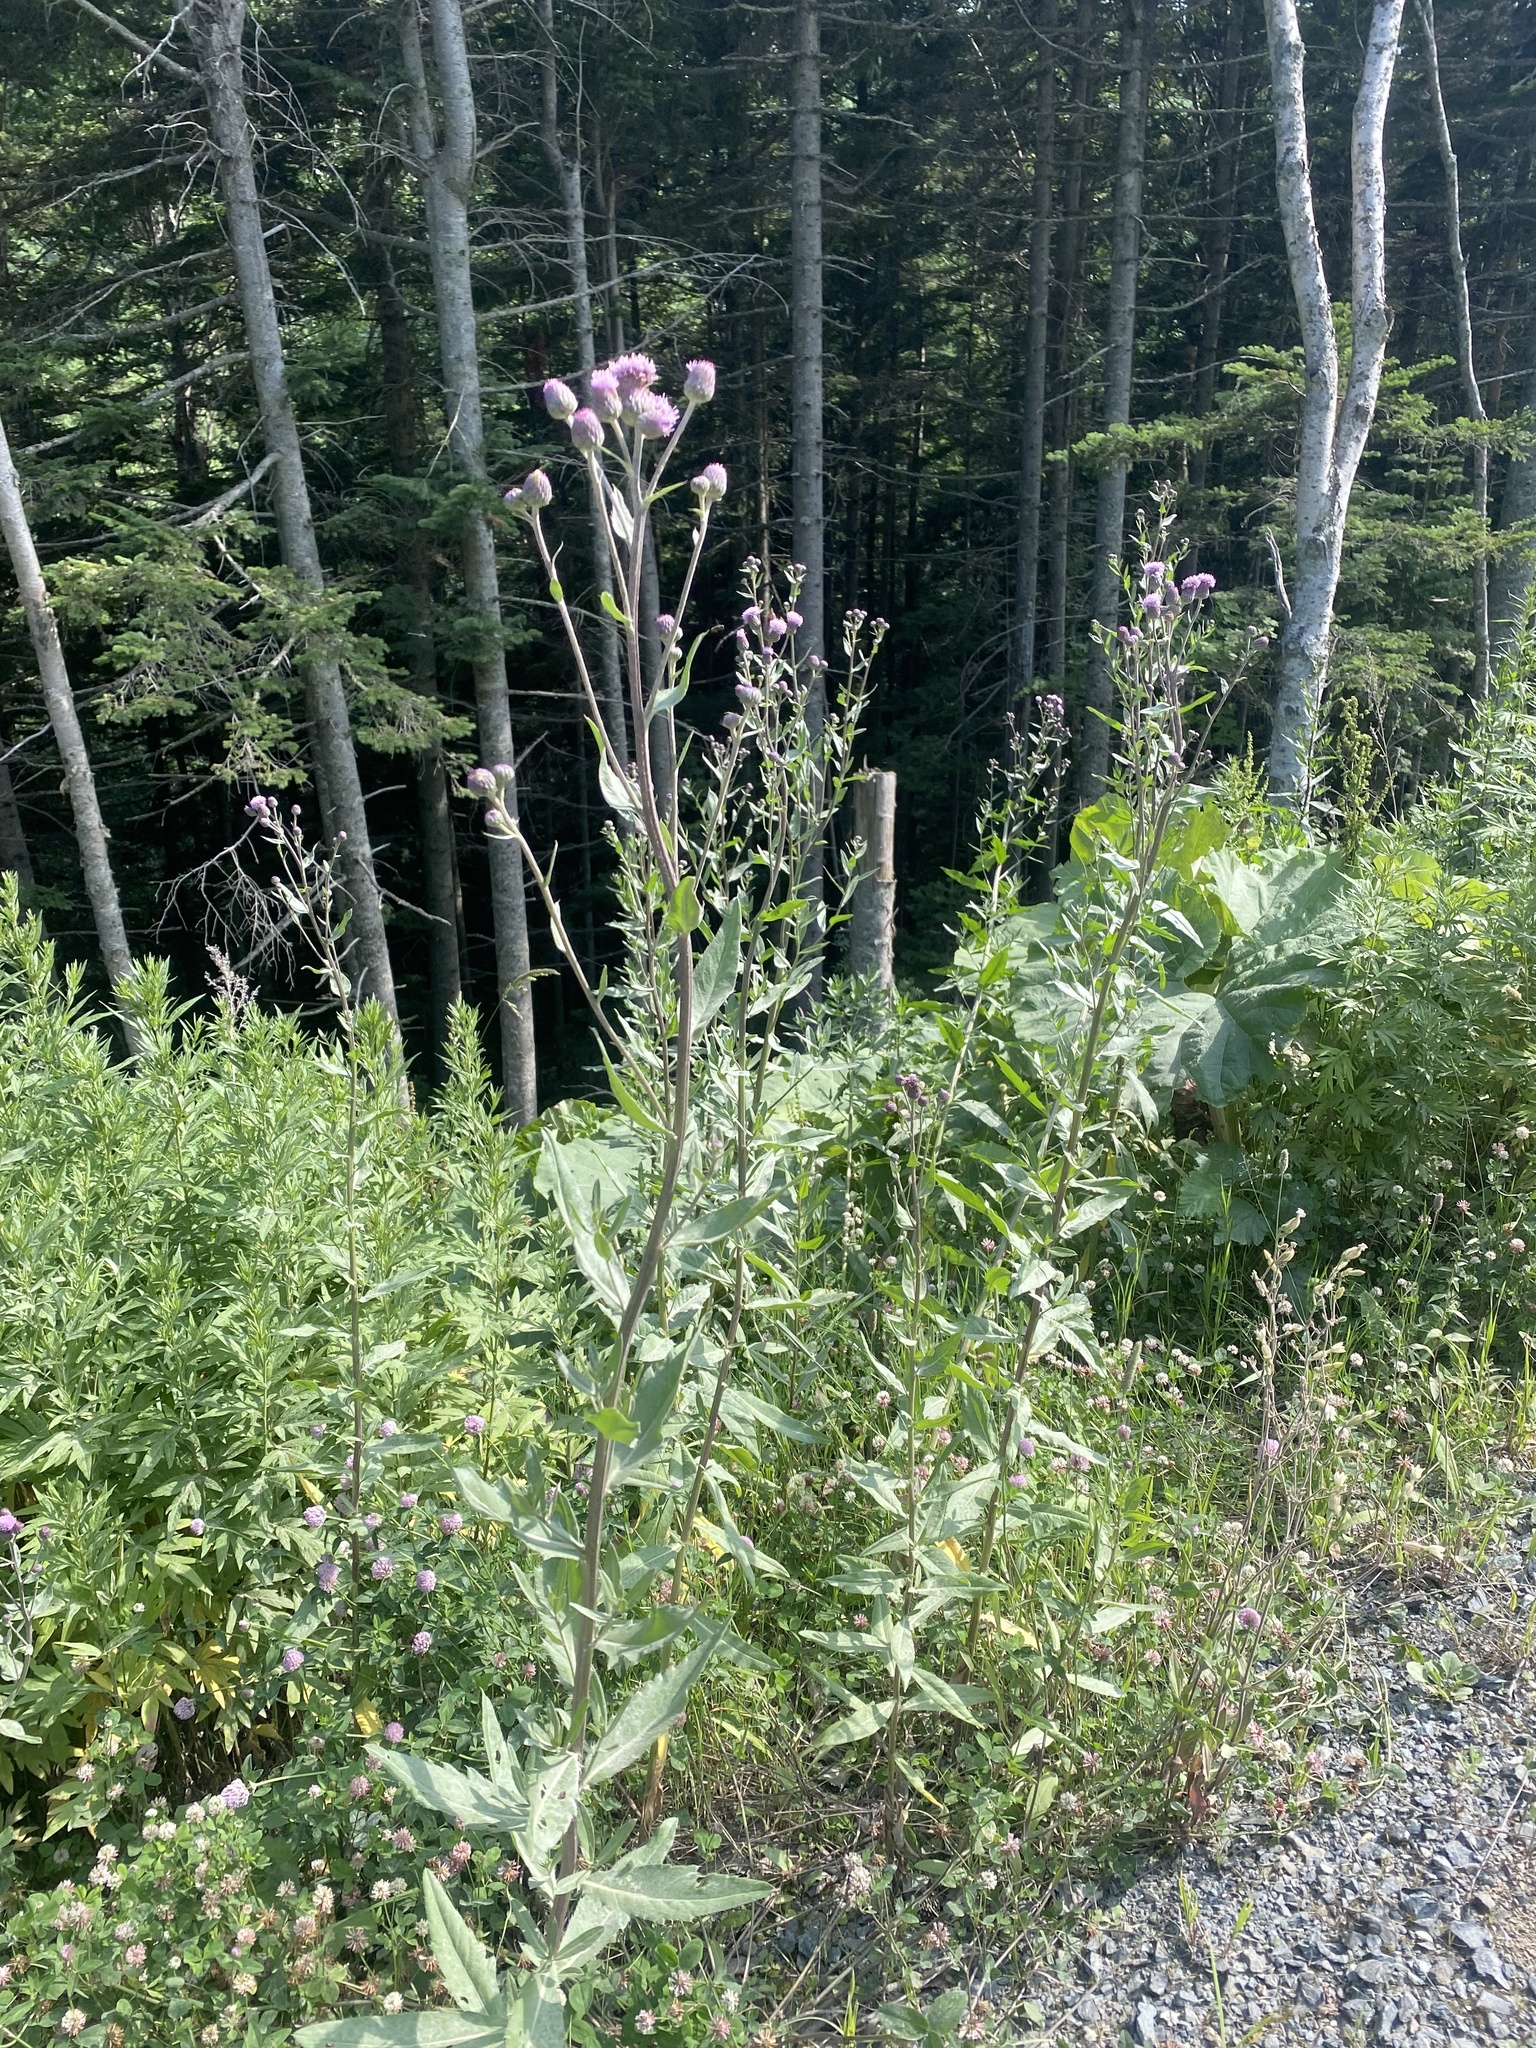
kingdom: Plantae
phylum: Tracheophyta
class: Magnoliopsida
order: Asterales
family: Asteraceae
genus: Cirsium
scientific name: Cirsium arvense
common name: Creeping thistle
